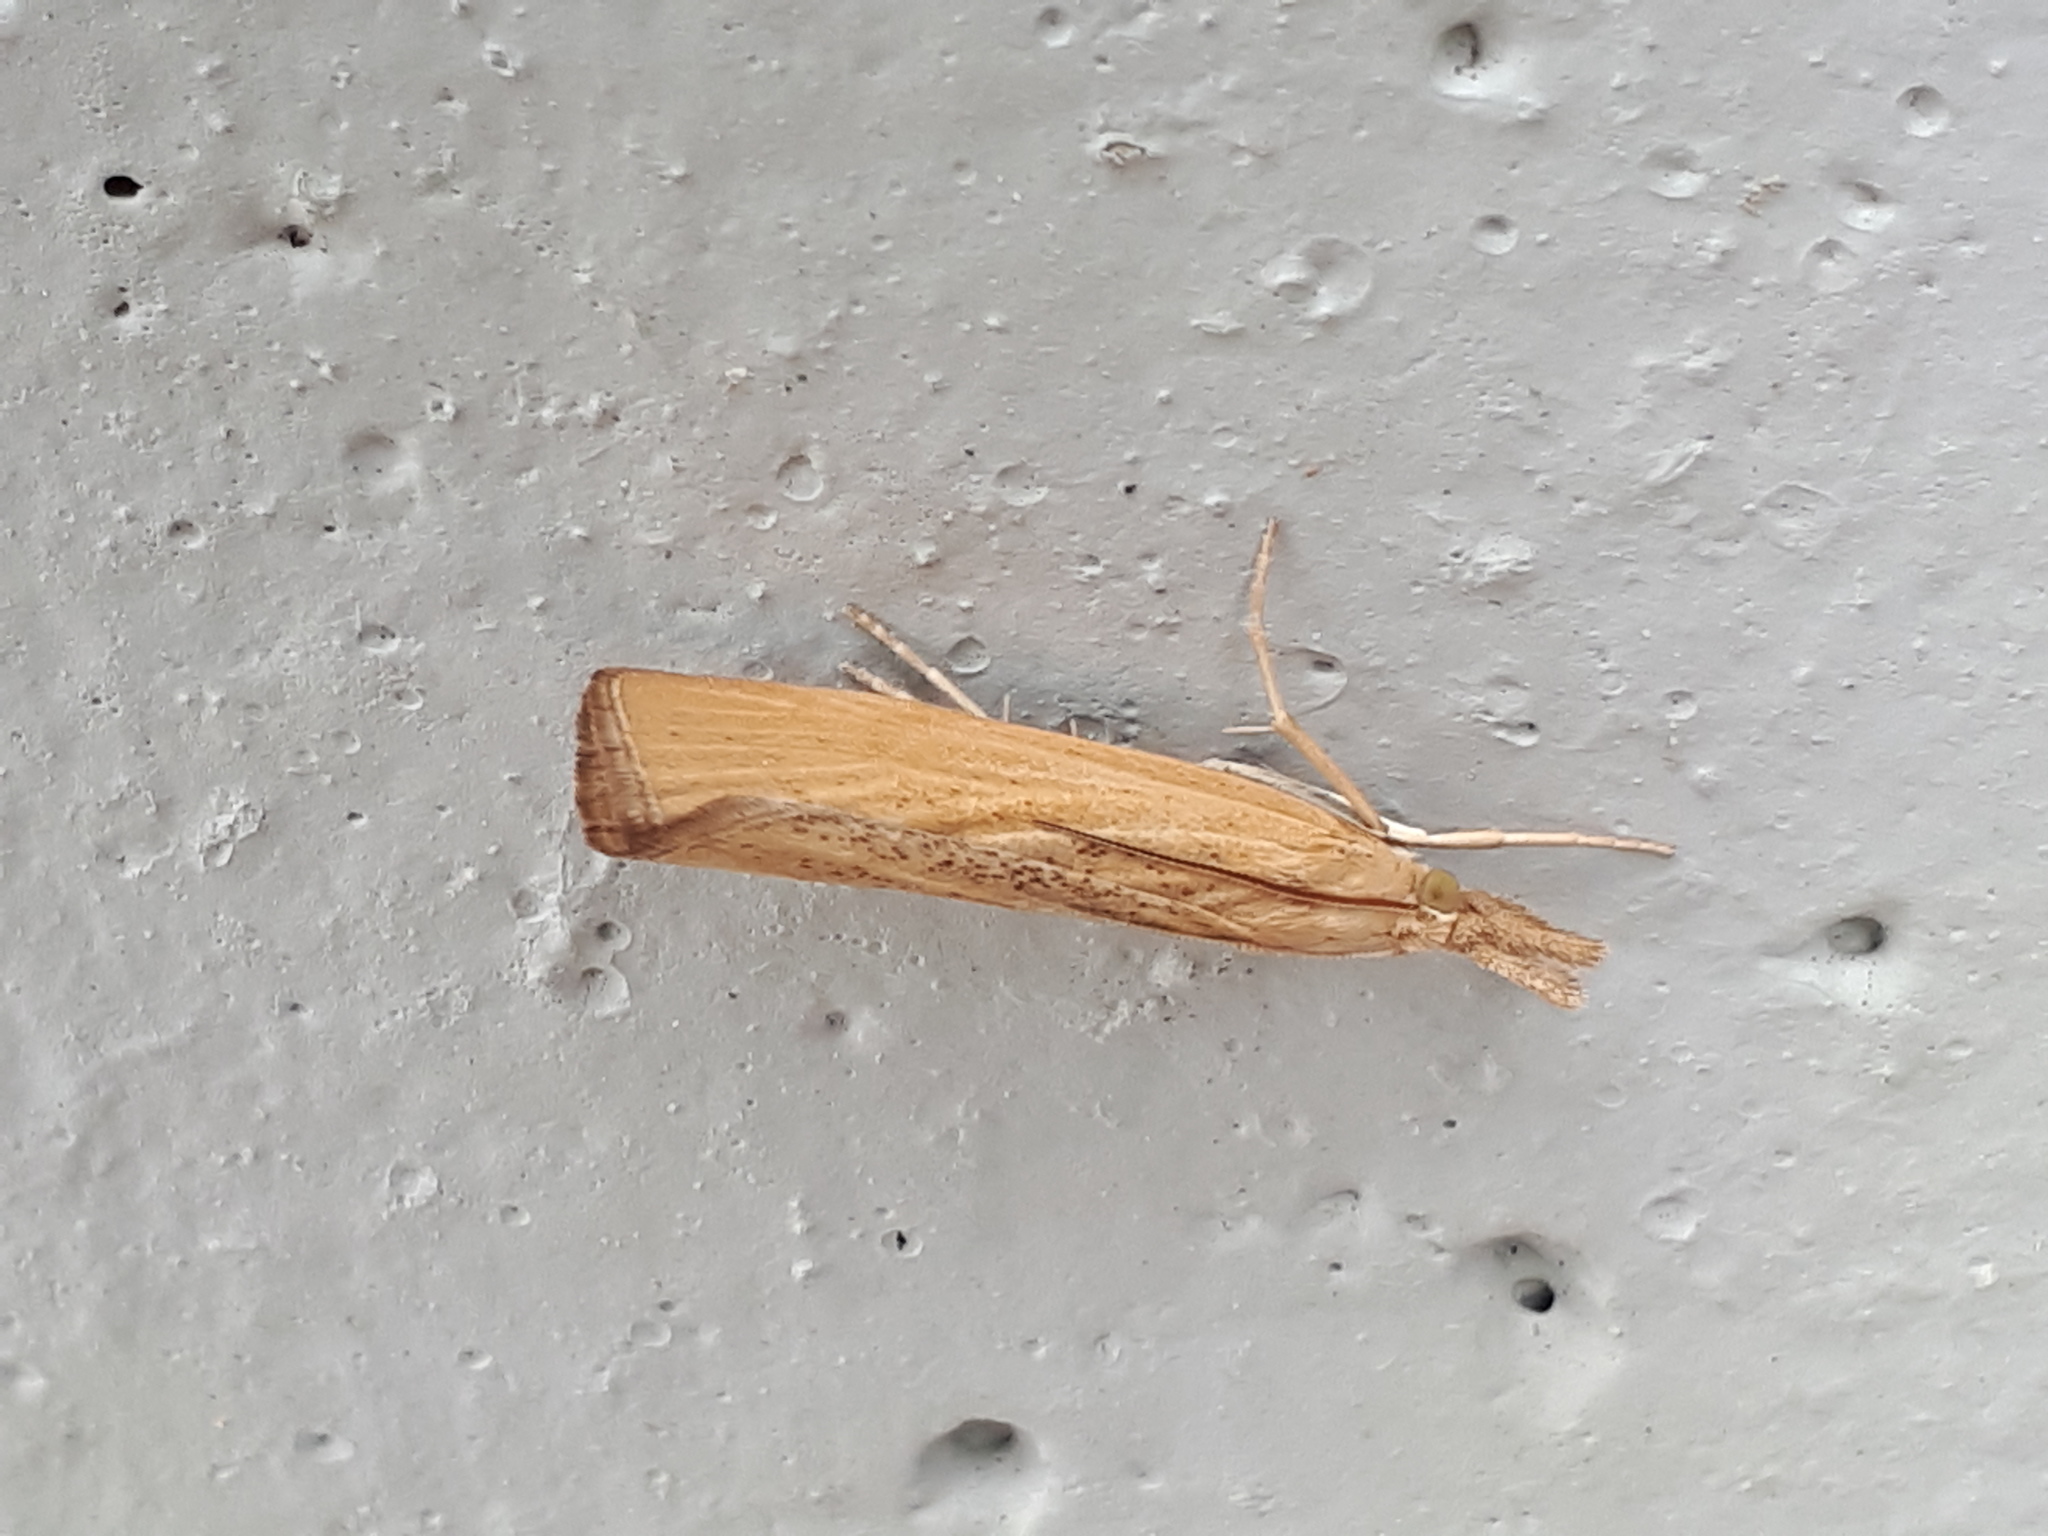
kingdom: Animalia
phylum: Arthropoda
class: Insecta
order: Lepidoptera
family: Crambidae
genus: Pediasia
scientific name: Pediasia luteella
